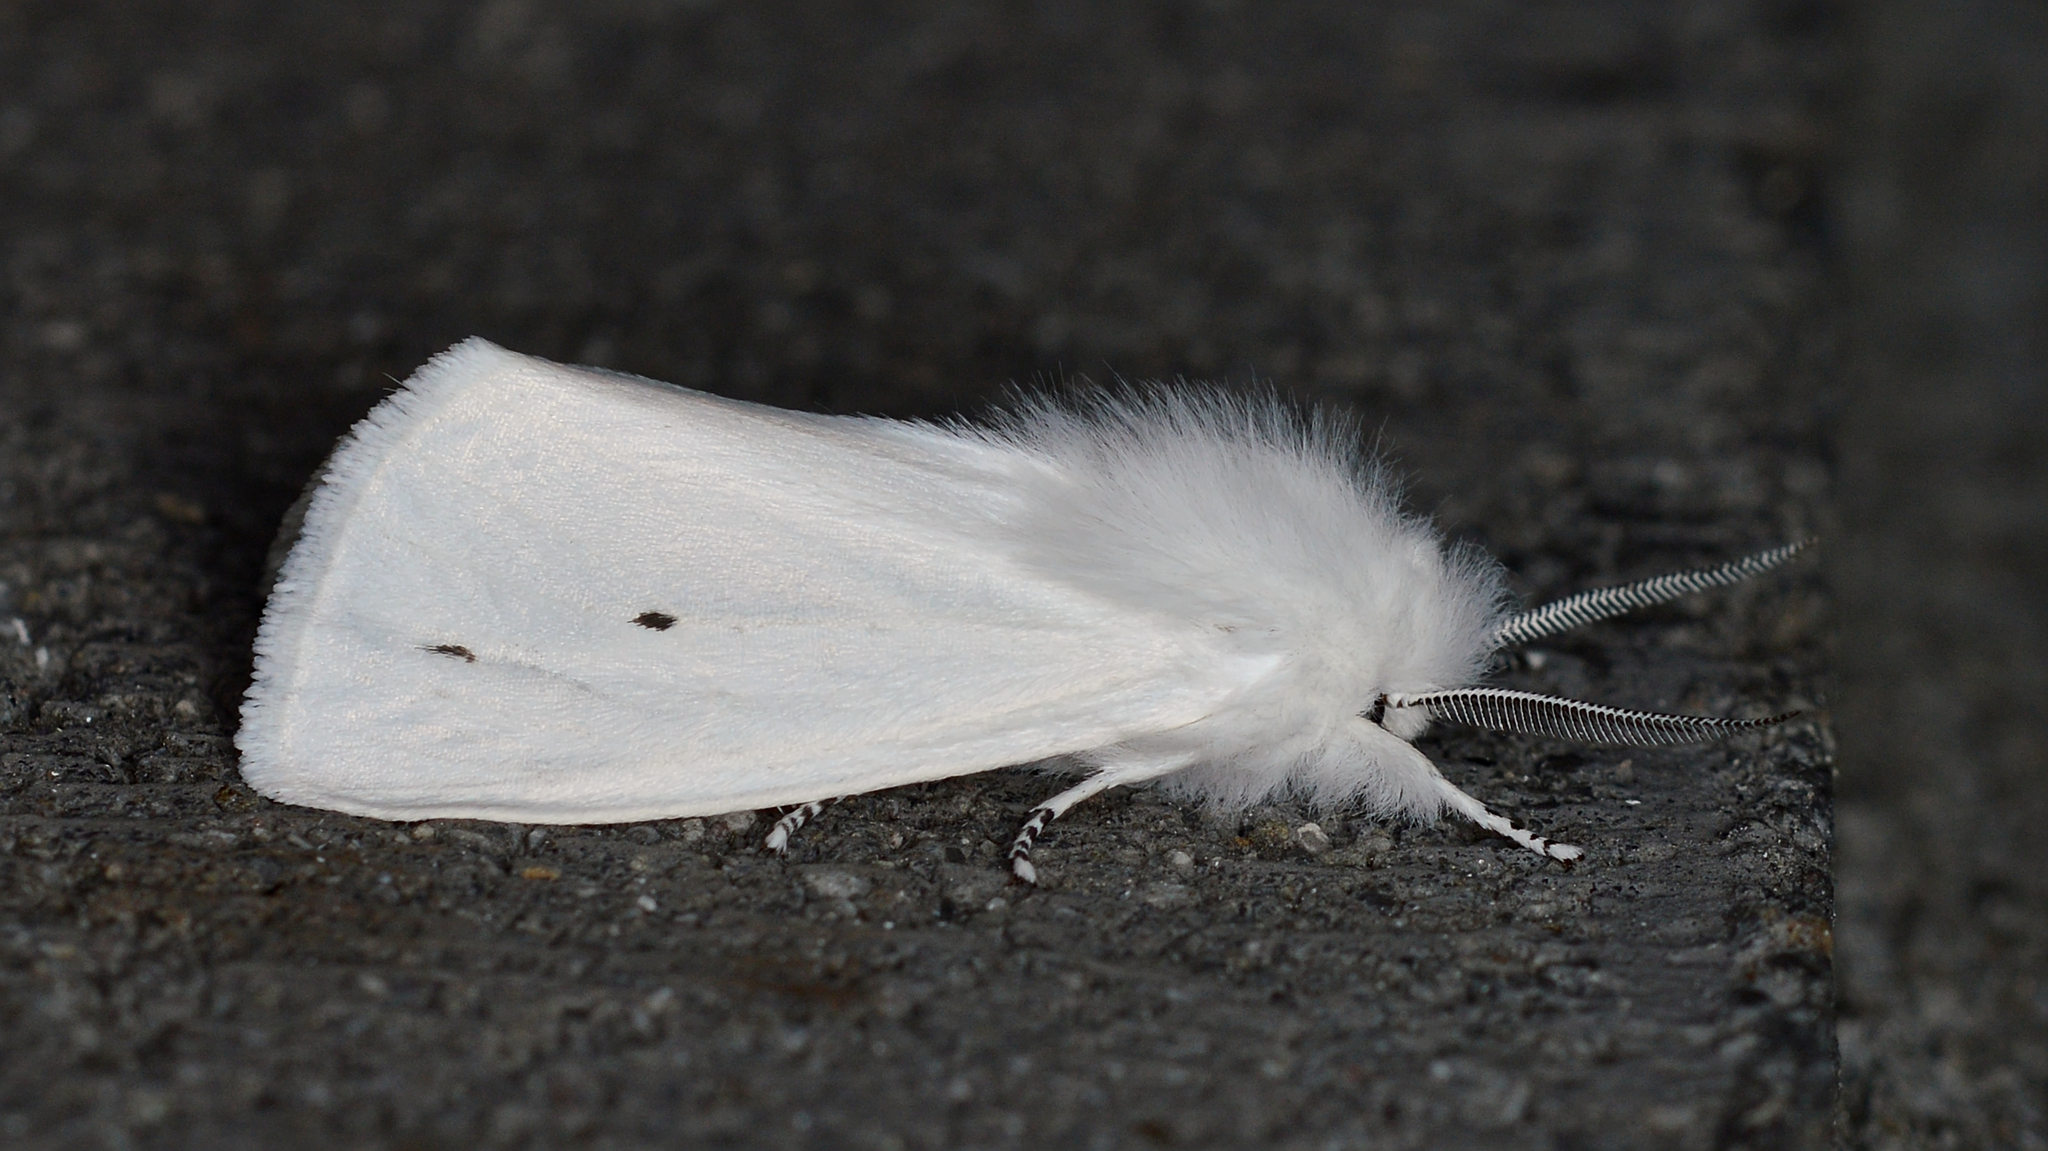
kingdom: Animalia
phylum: Arthropoda
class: Insecta
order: Lepidoptera
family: Erebidae
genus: Spilosoma
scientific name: Spilosoma virginica
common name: Virginia tiger moth
